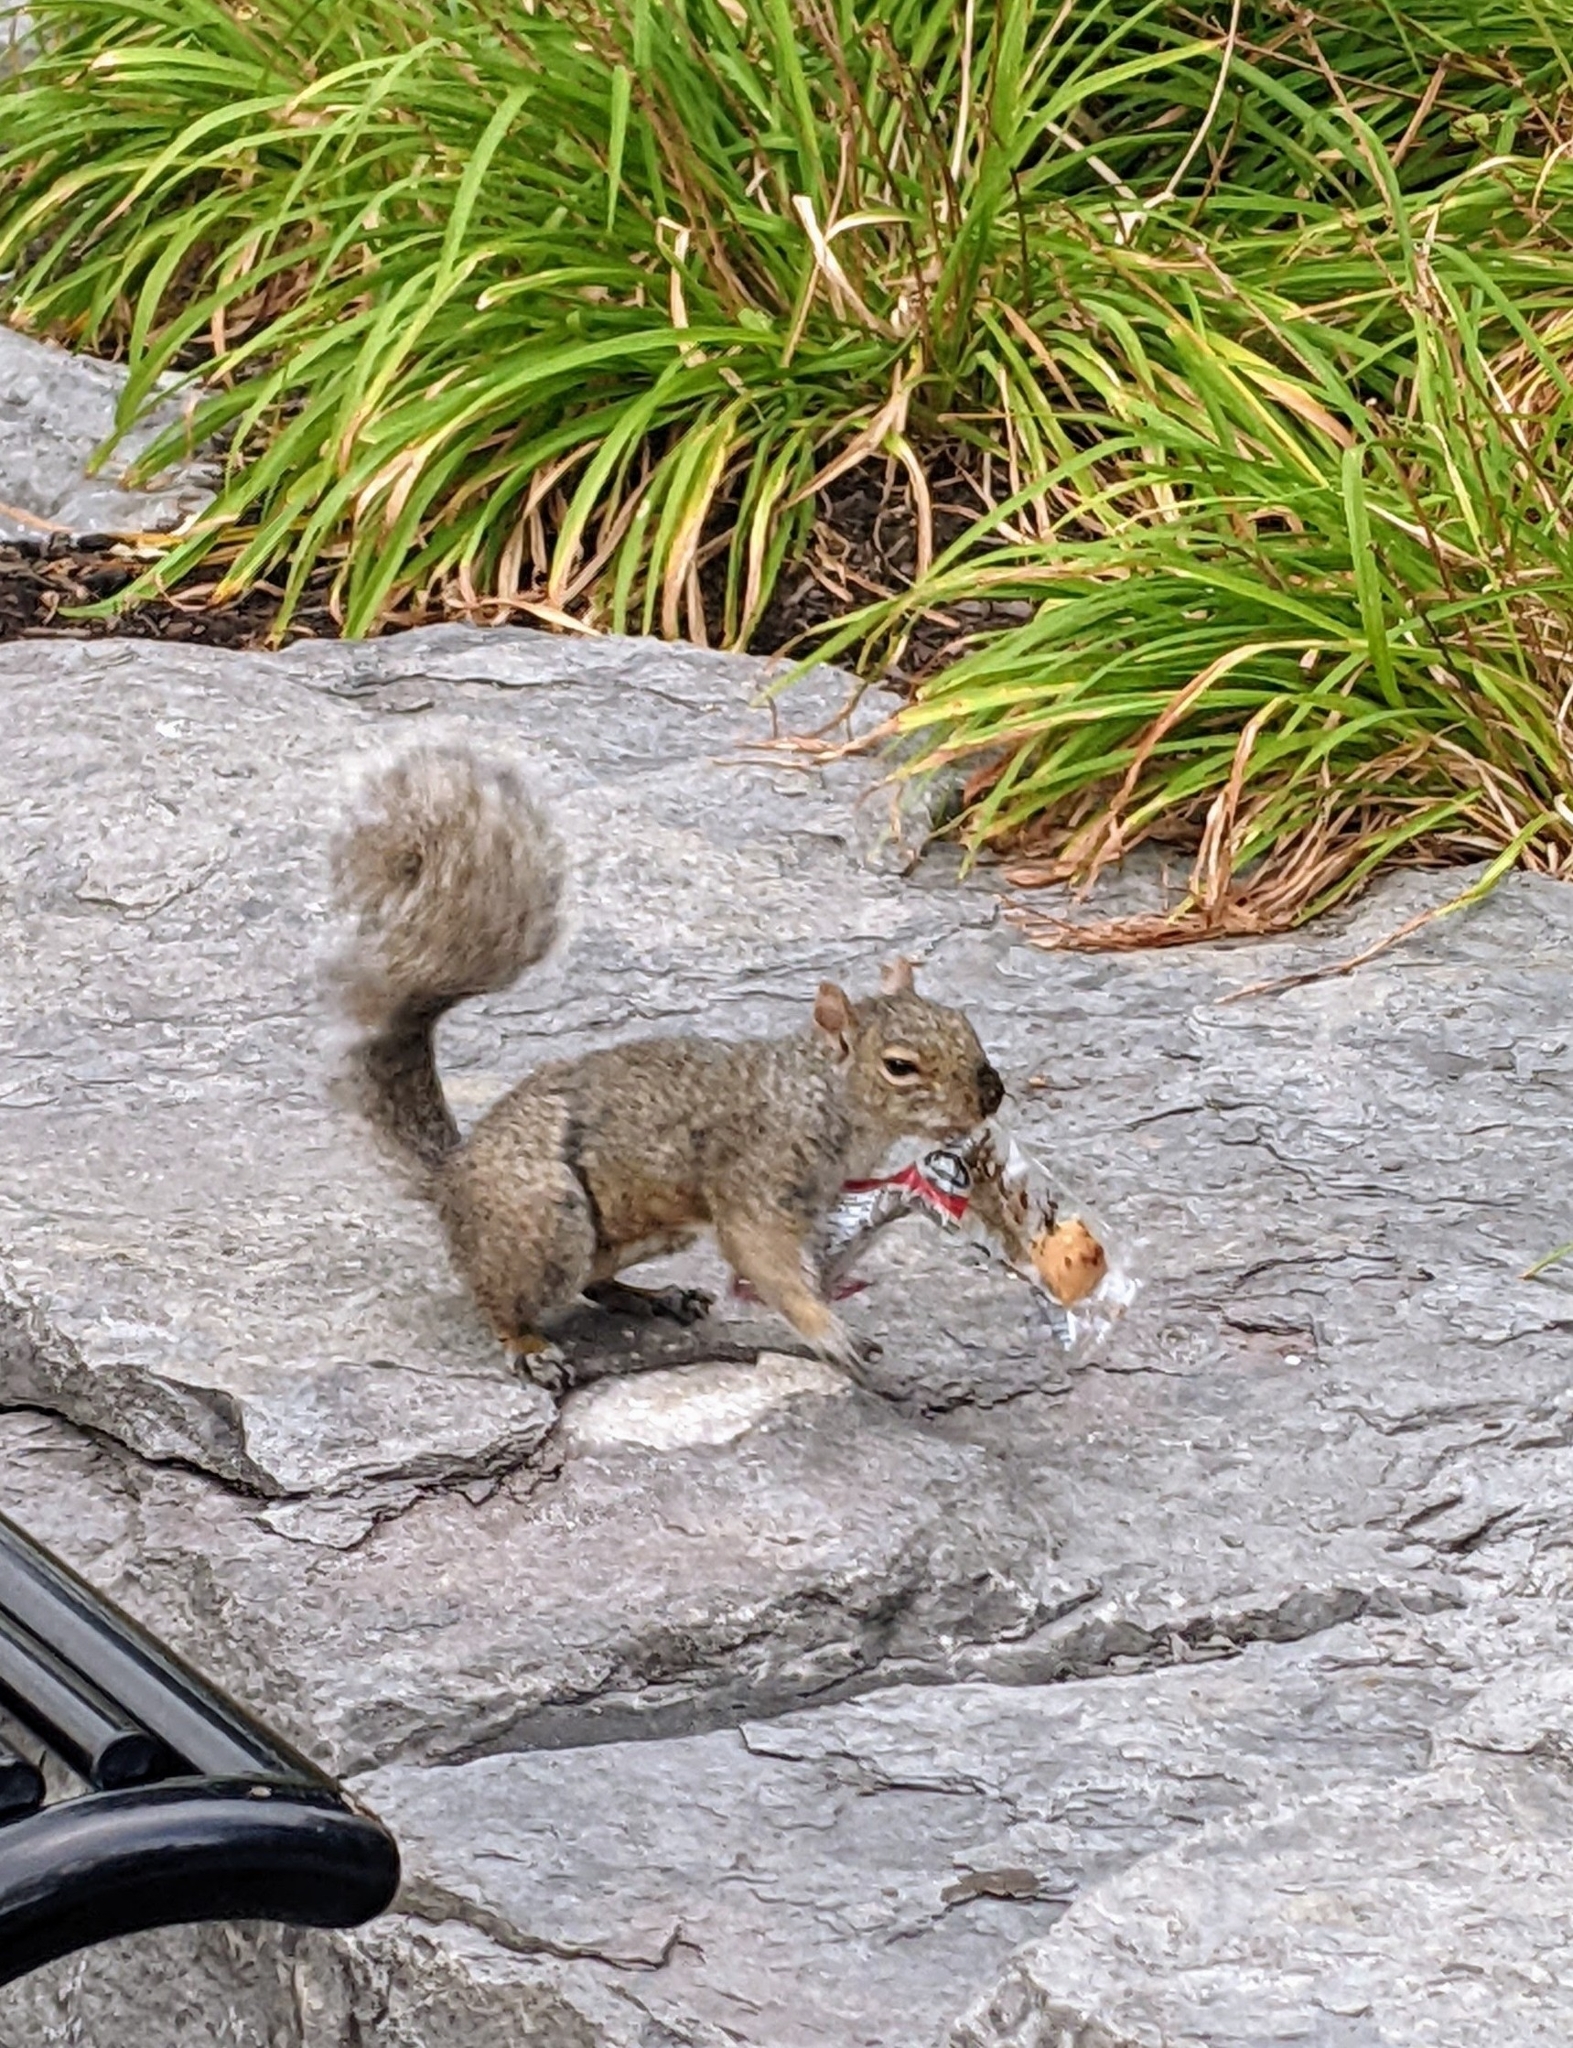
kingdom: Animalia
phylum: Chordata
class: Mammalia
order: Rodentia
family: Sciuridae
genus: Sciurus
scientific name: Sciurus carolinensis
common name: Eastern gray squirrel
